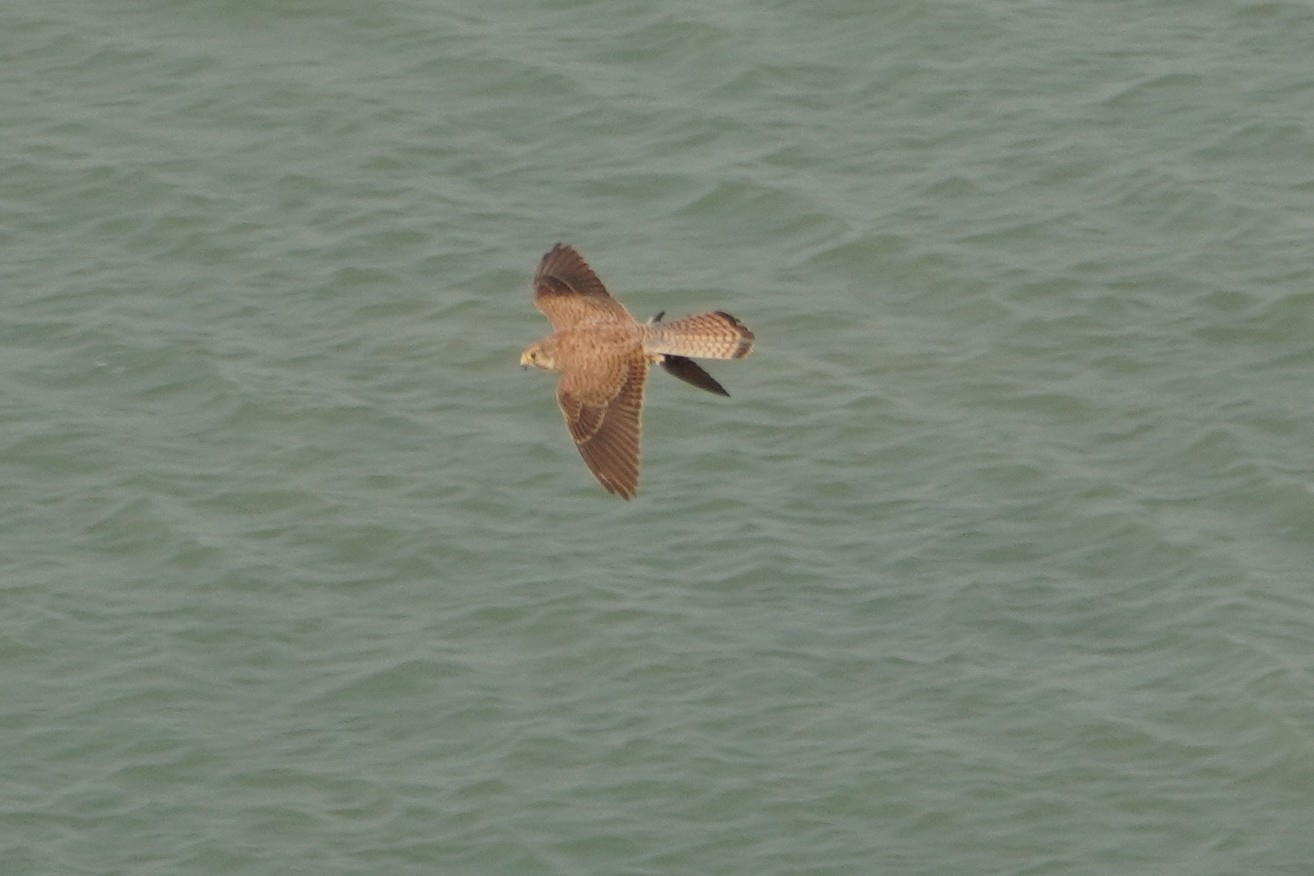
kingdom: Animalia
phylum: Chordata
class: Aves
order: Falconiformes
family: Falconidae
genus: Falco
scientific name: Falco tinnunculus
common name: Common kestrel
